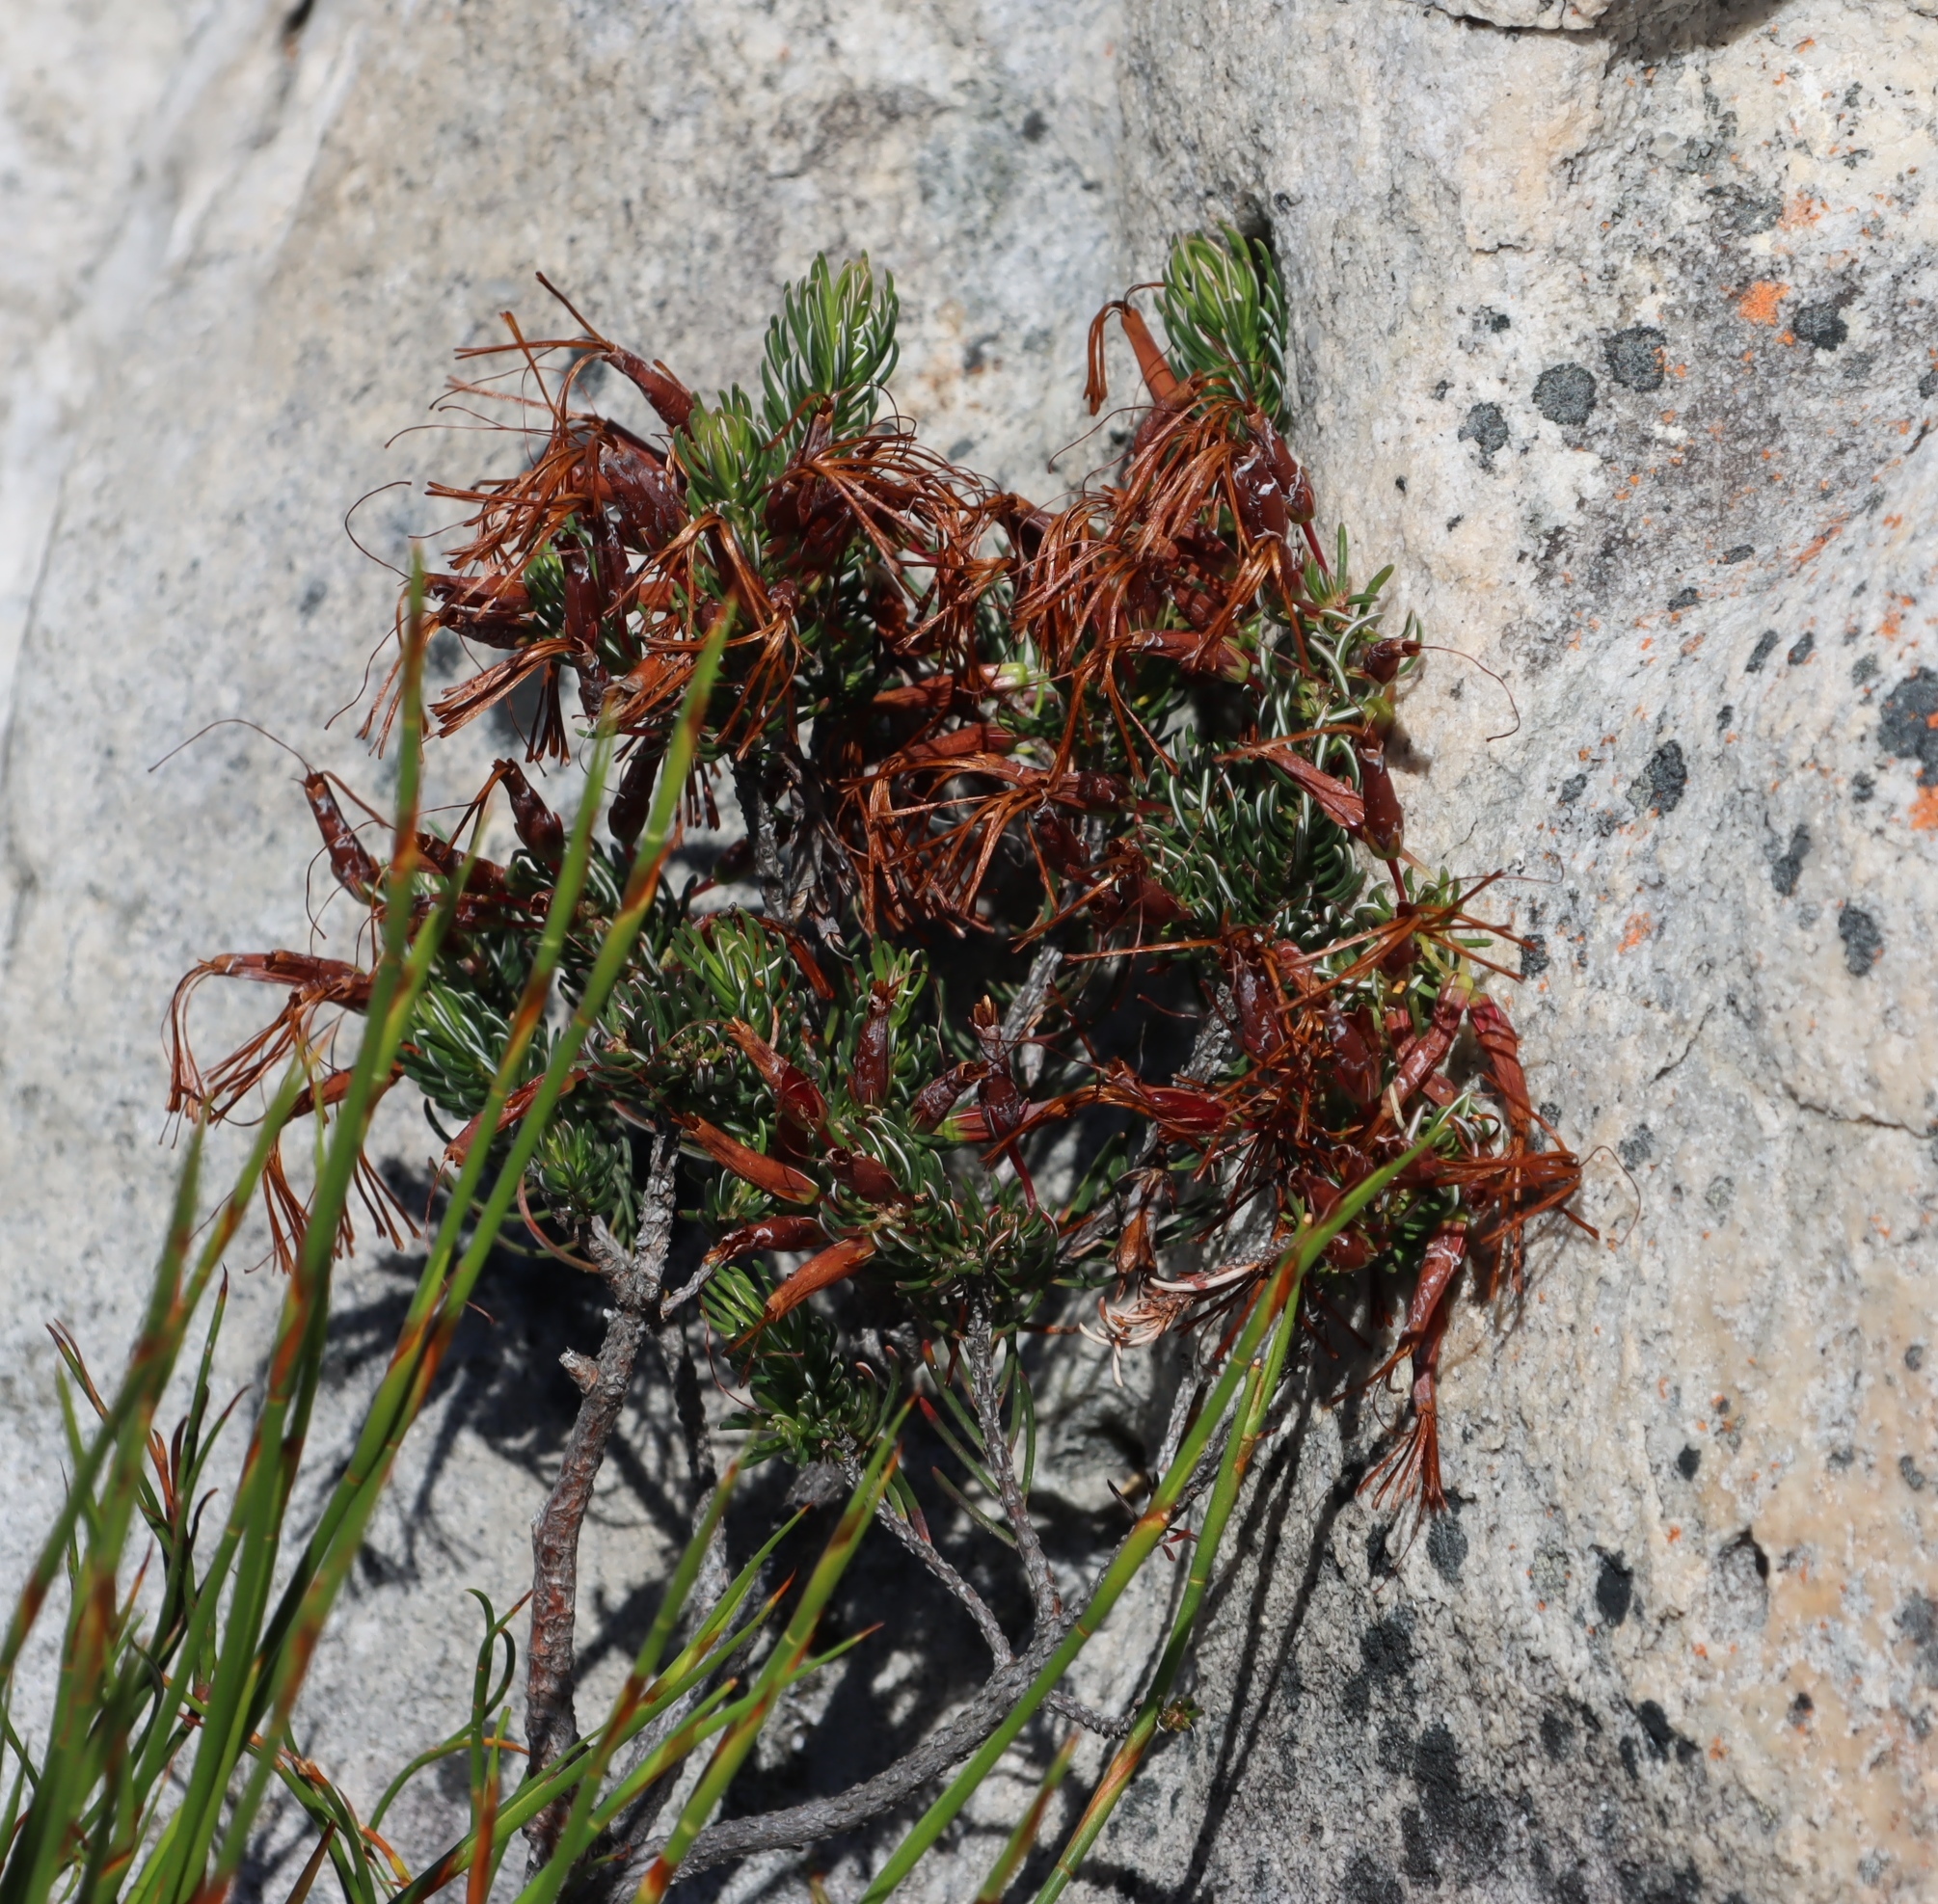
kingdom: Plantae
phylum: Tracheophyta
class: Magnoliopsida
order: Ericales
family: Ericaceae
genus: Erica
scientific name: Erica plukenetii
